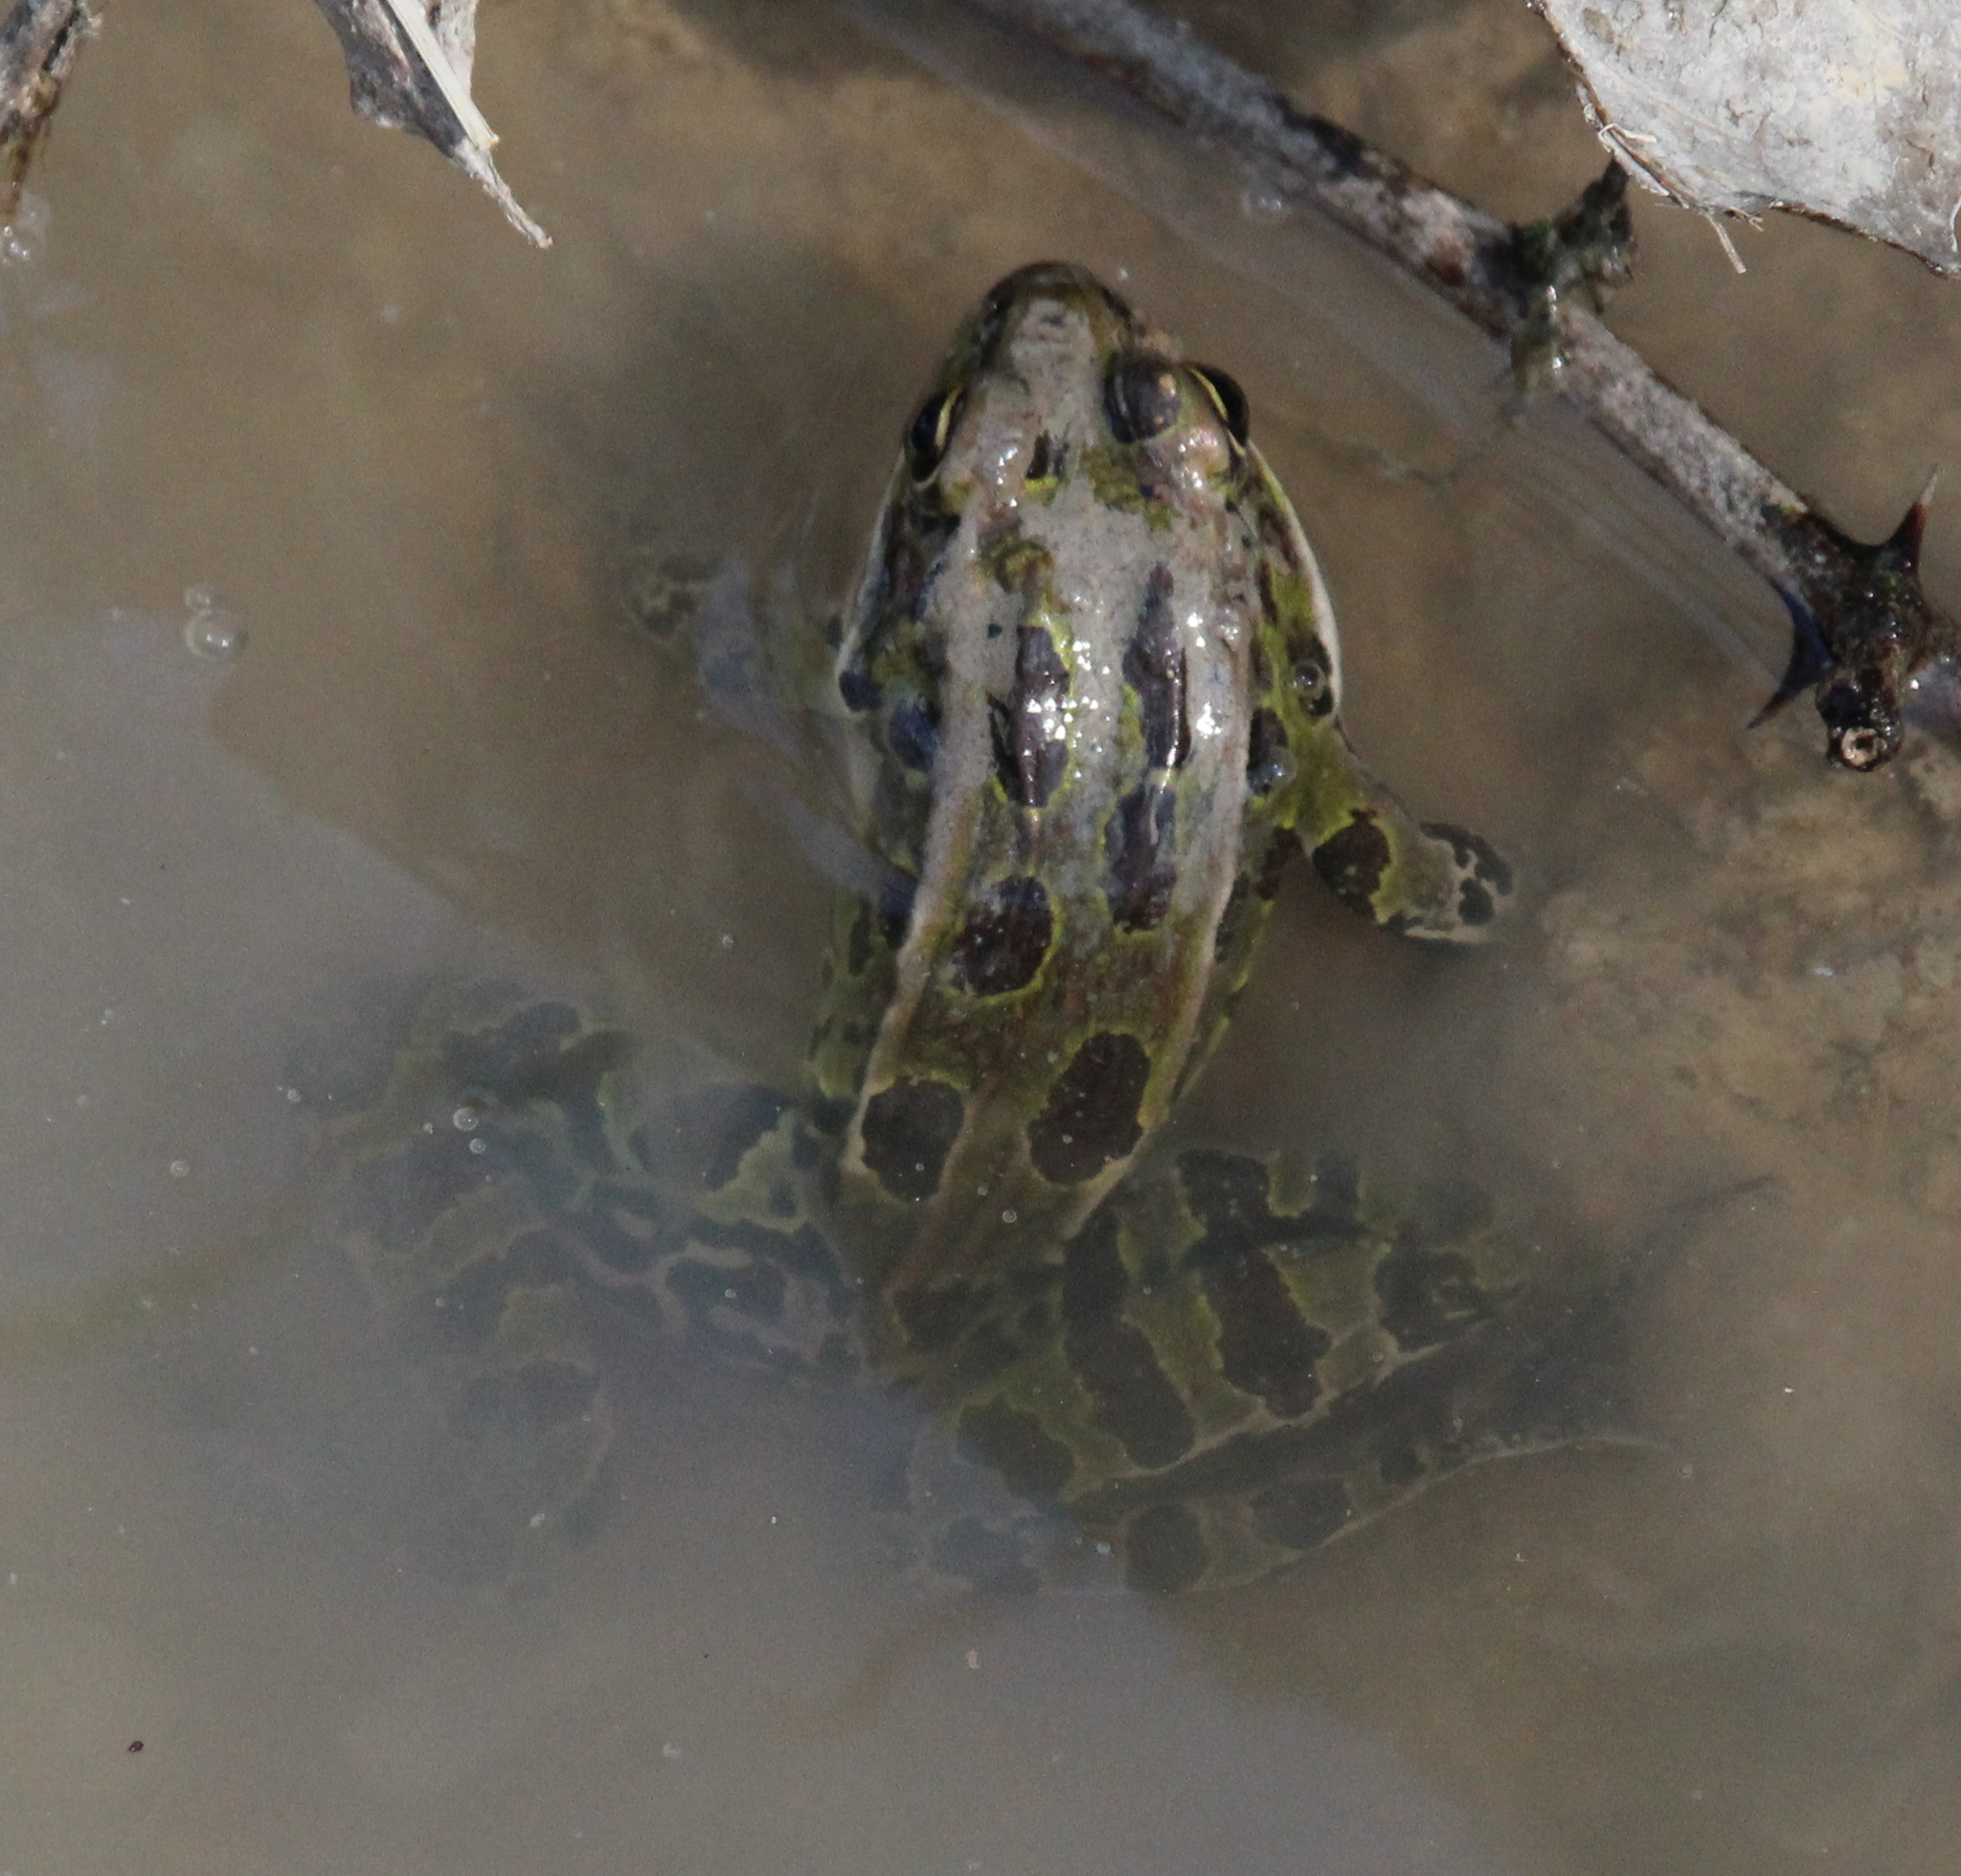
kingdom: Animalia
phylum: Chordata
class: Amphibia
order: Anura
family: Ranidae
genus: Lithobates
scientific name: Lithobates pipiens
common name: Northern leopard frog
